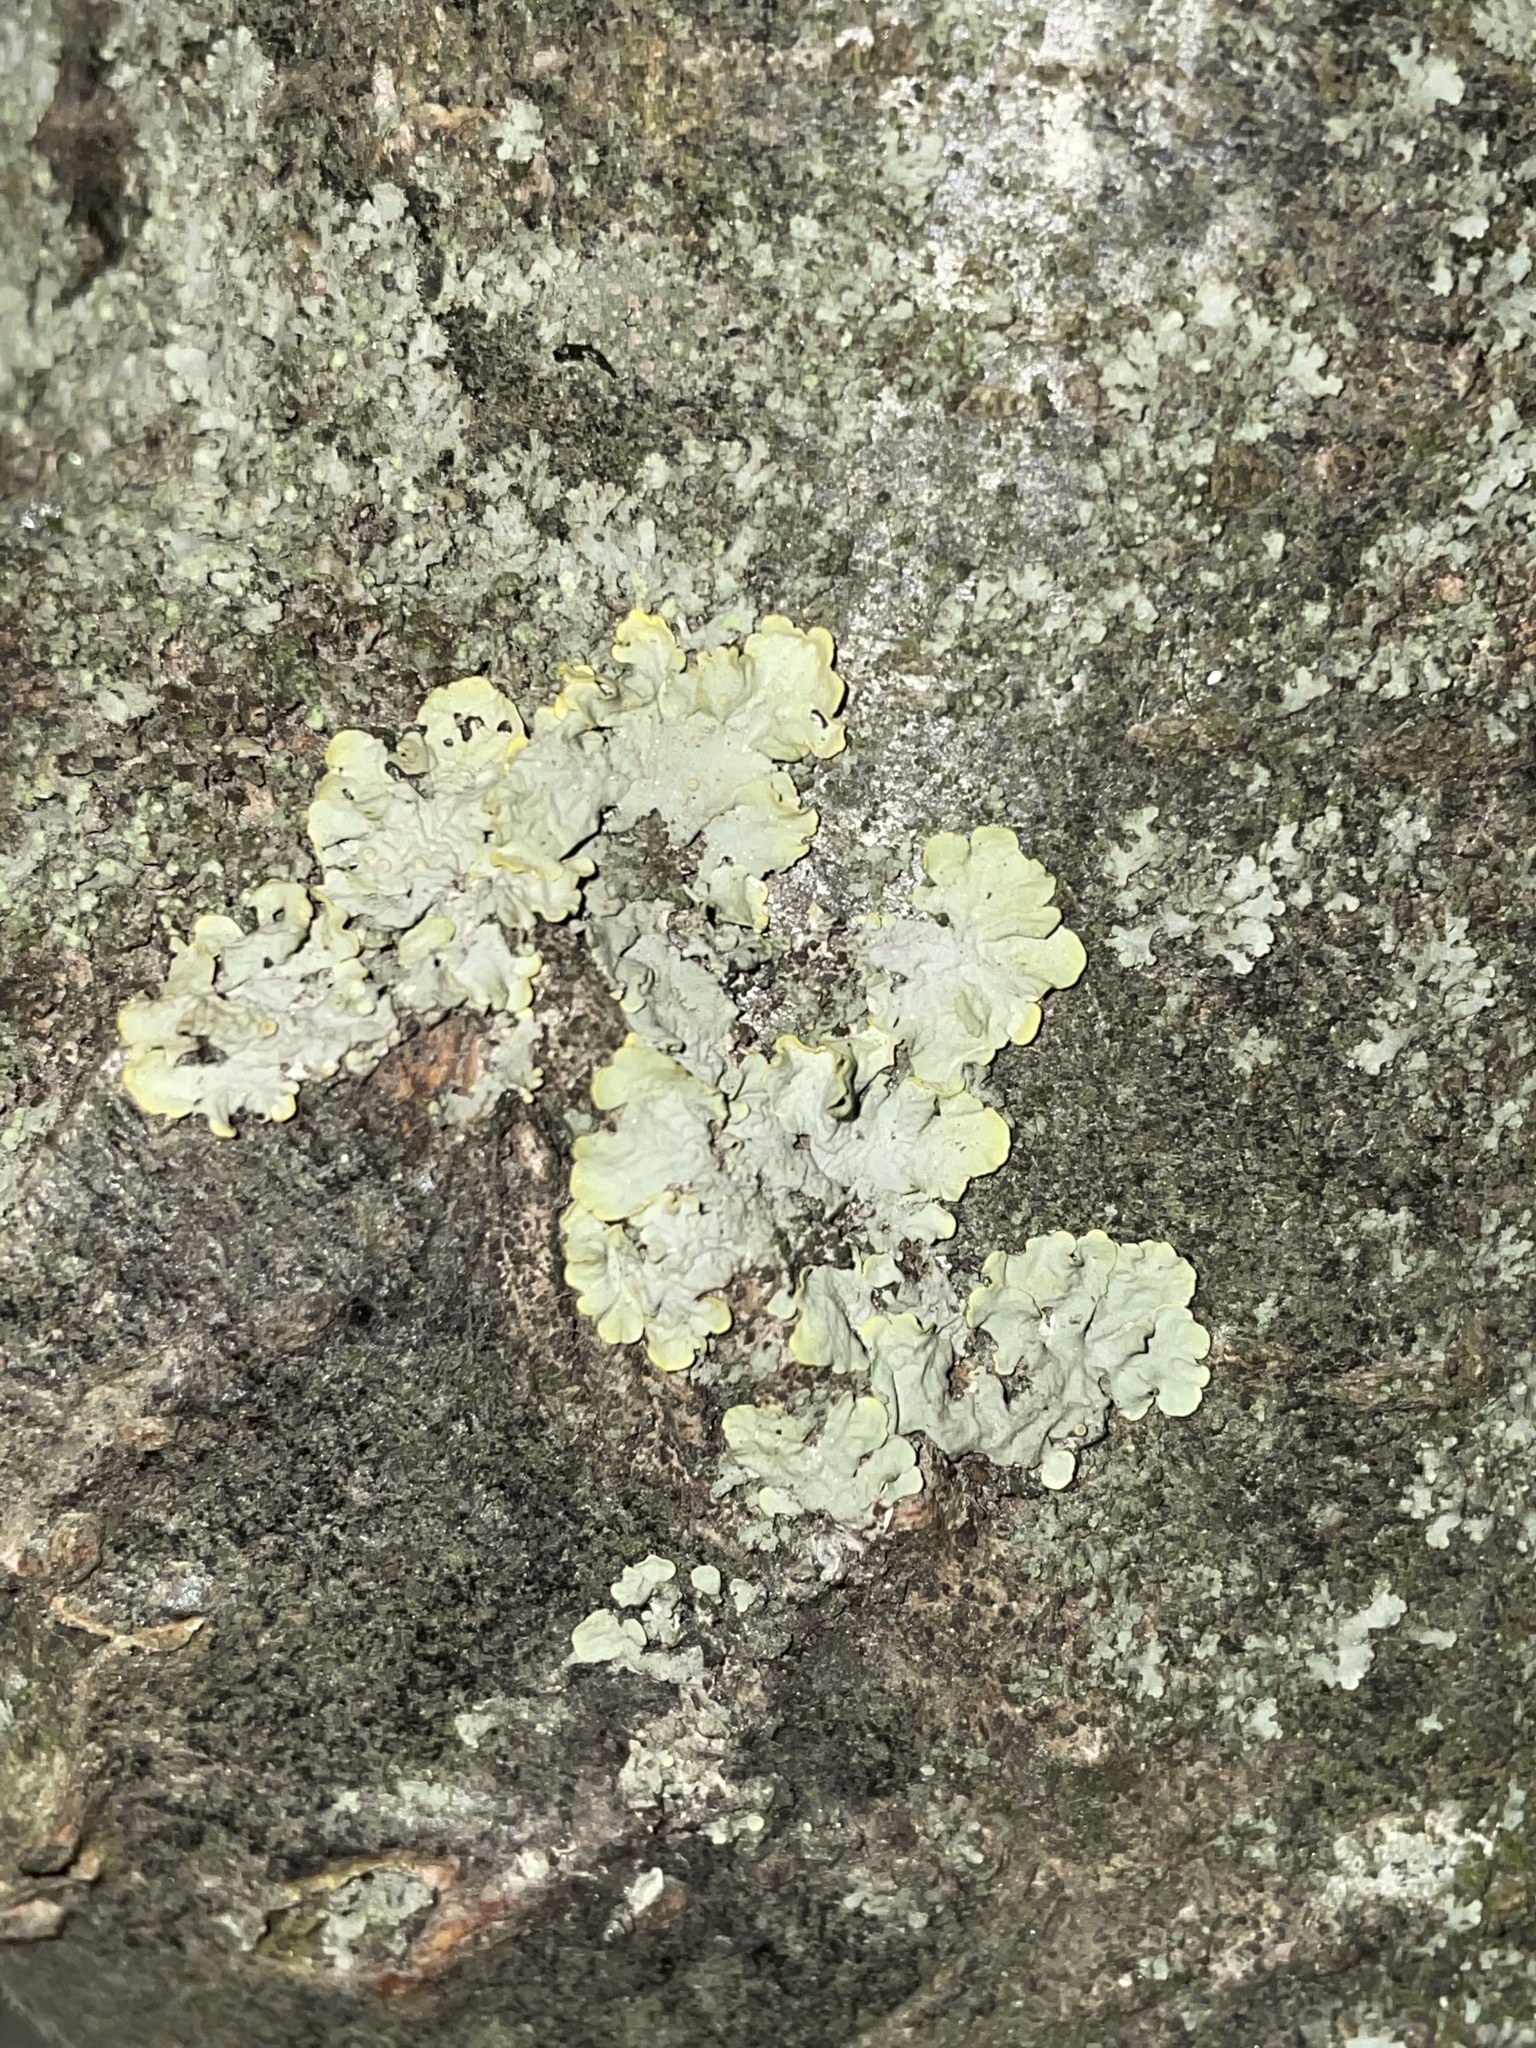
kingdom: Fungi
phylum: Ascomycota
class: Lecanoromycetes
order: Teloschistales
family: Teloschistaceae
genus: Xanthoria
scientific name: Xanthoria parietina
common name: Common orange lichen
